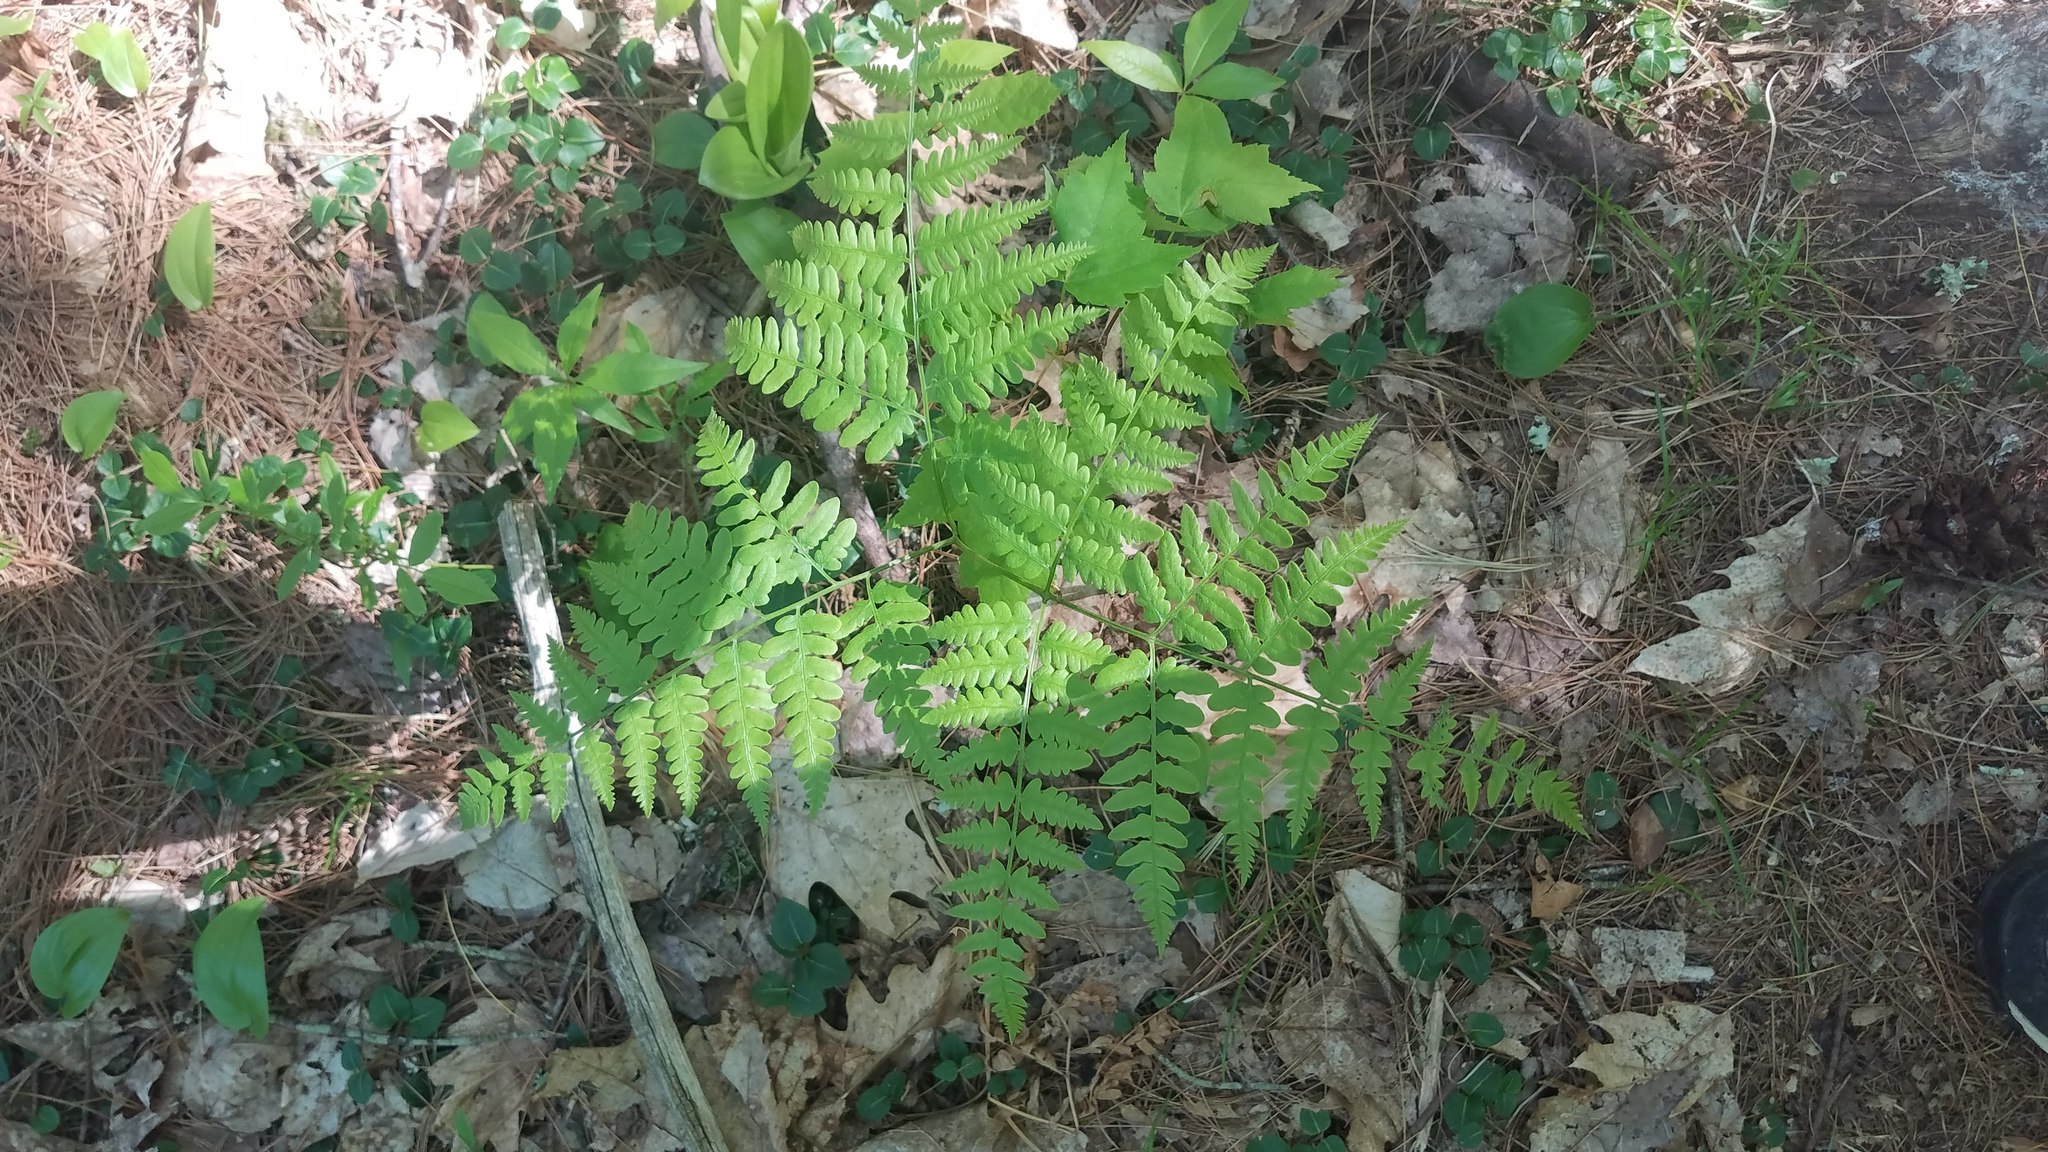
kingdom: Plantae
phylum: Tracheophyta
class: Polypodiopsida
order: Polypodiales
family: Dennstaedtiaceae
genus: Pteridium
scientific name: Pteridium aquilinum
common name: Bracken
